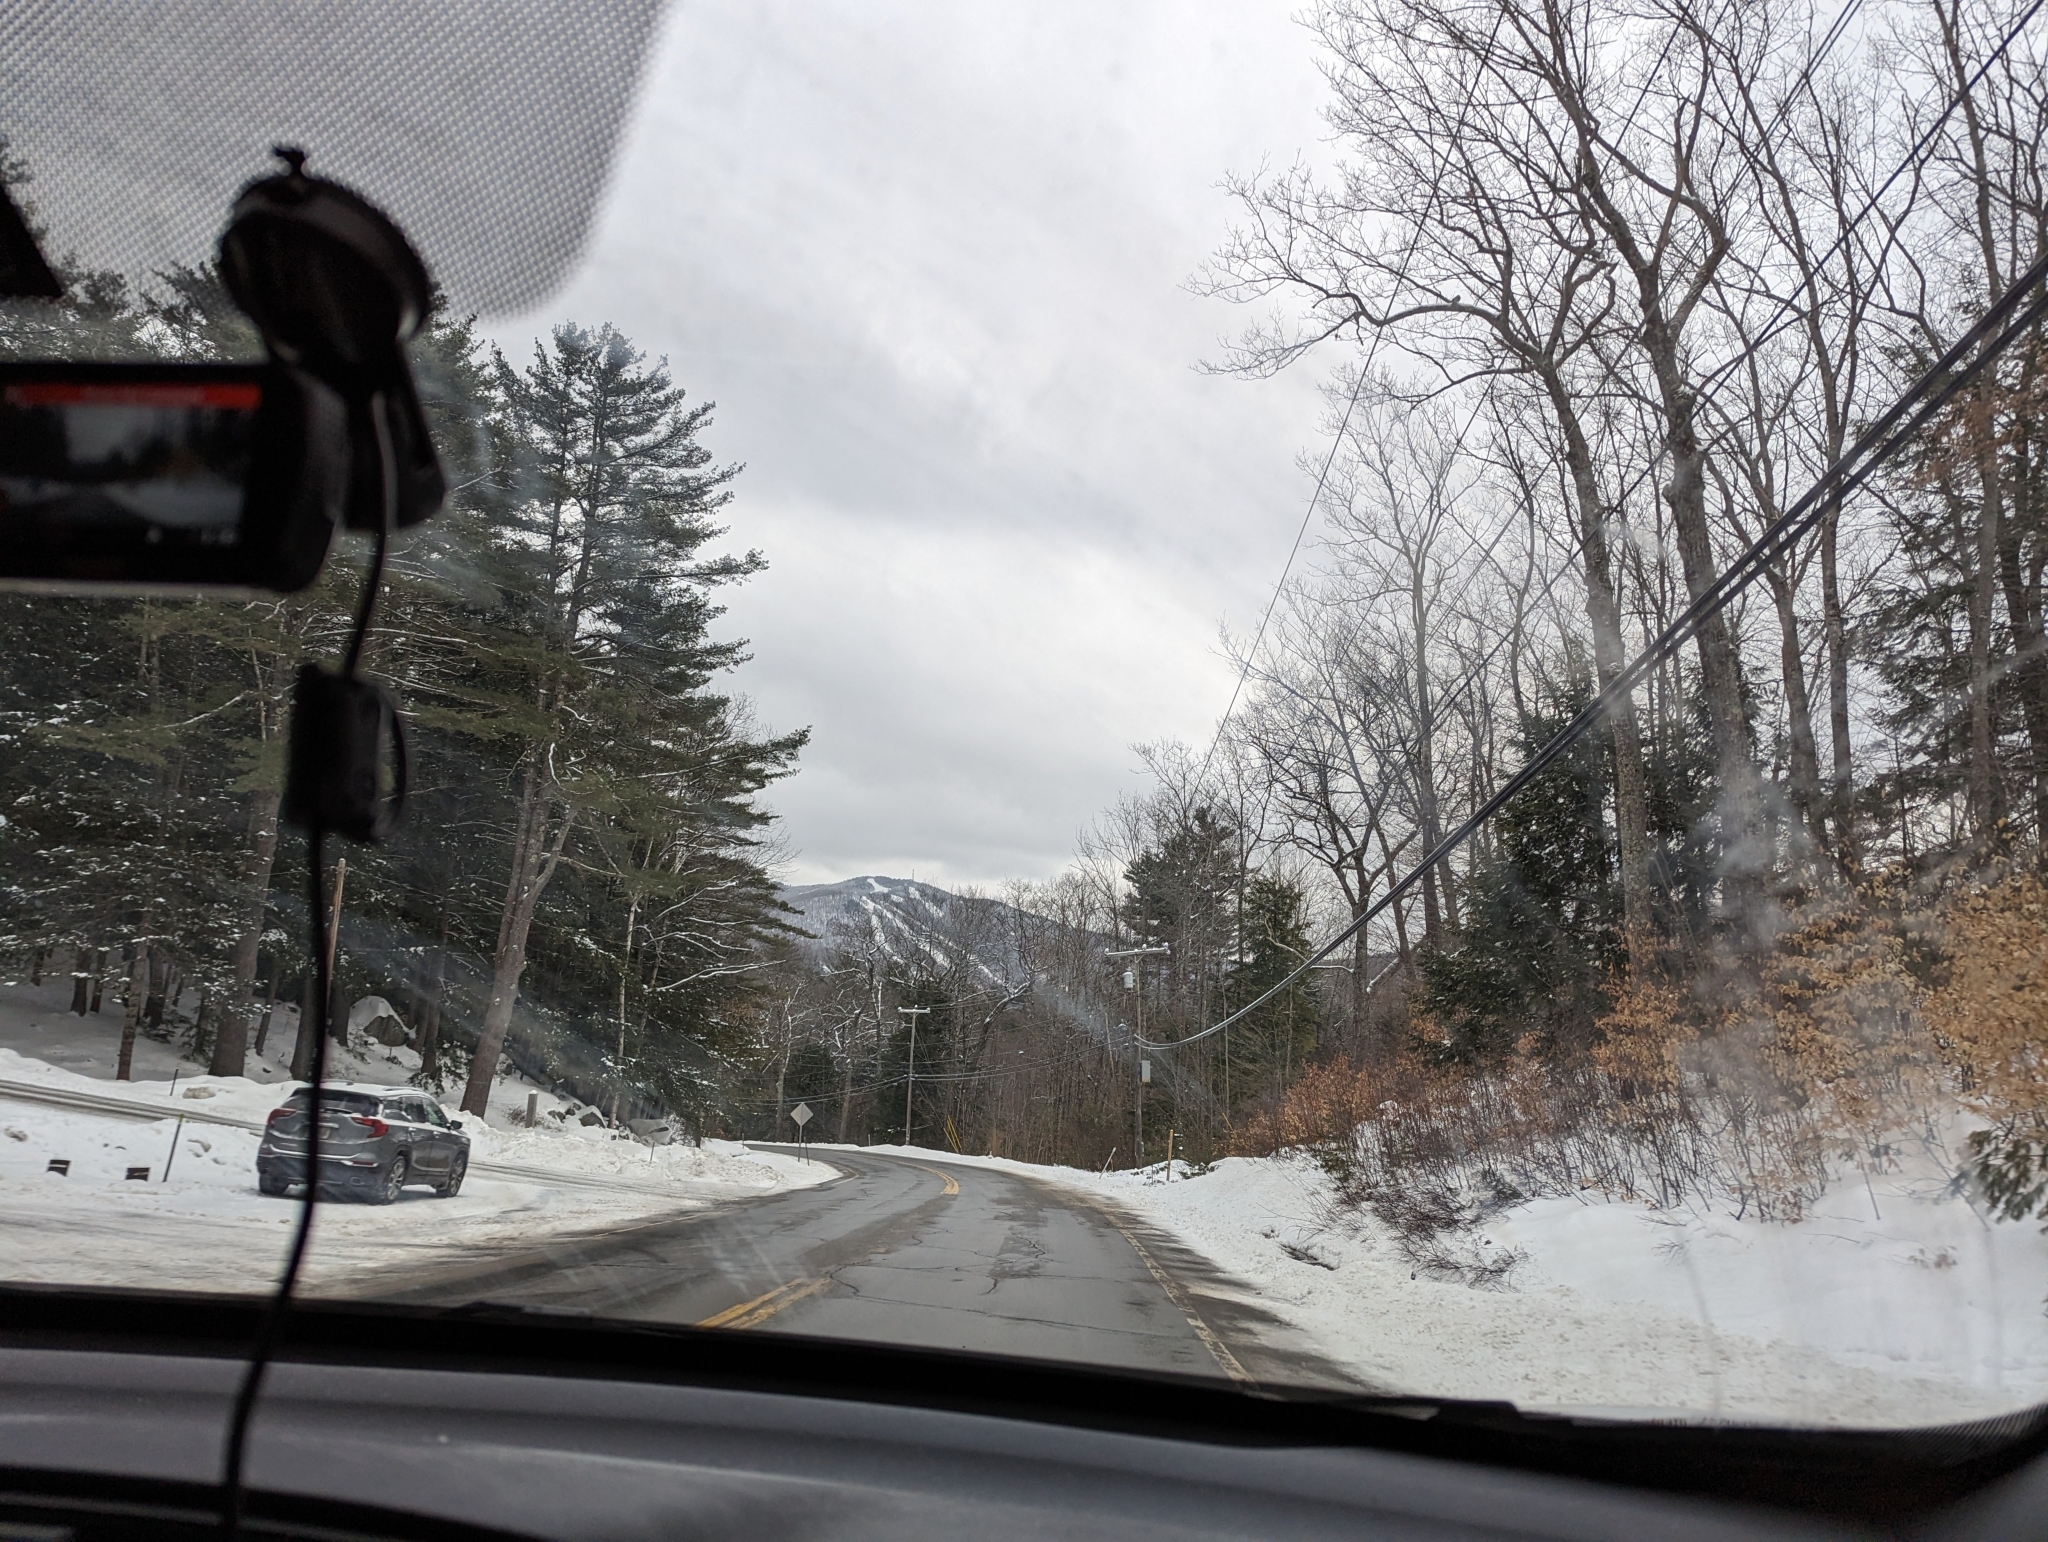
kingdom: Plantae
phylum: Tracheophyta
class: Pinopsida
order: Pinales
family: Pinaceae
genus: Pinus
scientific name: Pinus strobus
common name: Weymouth pine
